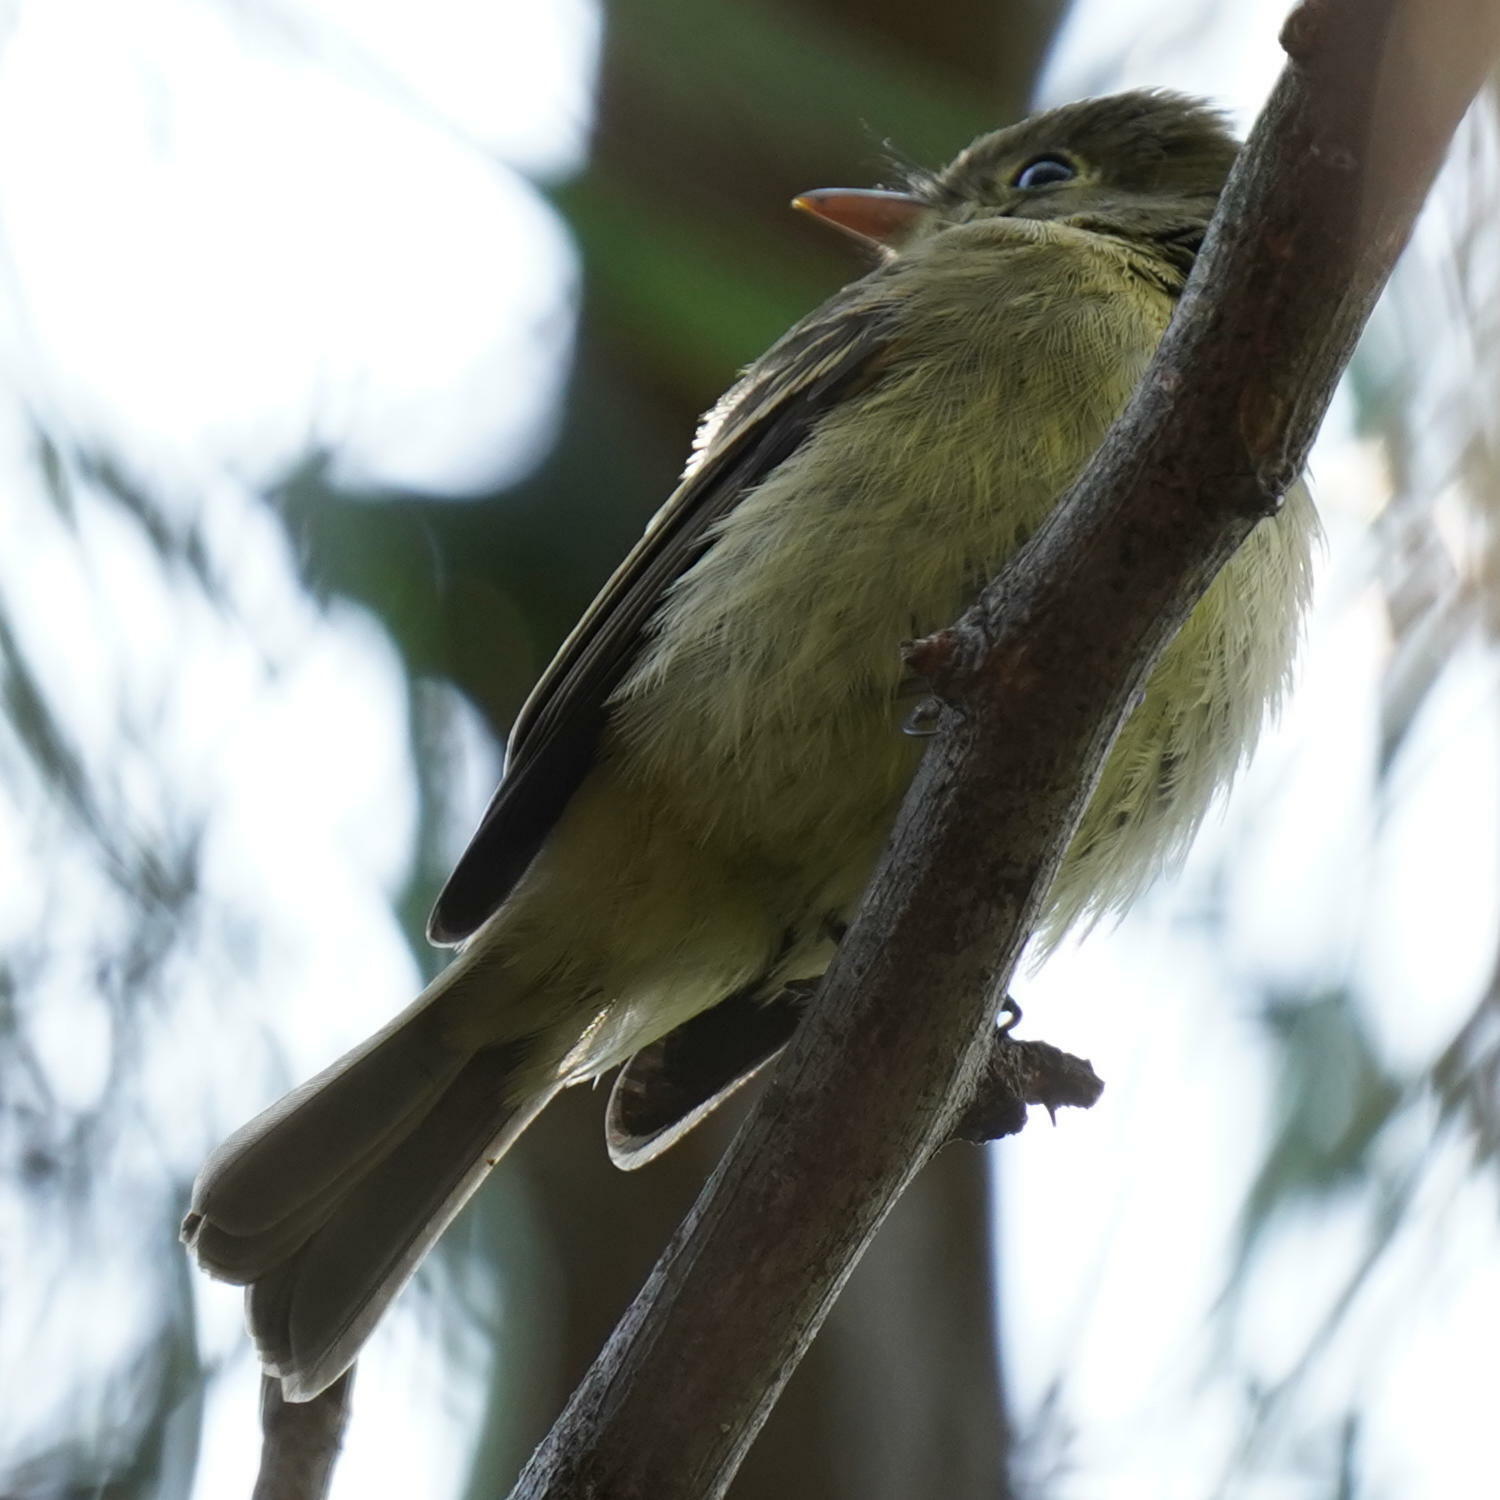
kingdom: Animalia
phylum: Chordata
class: Aves
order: Passeriformes
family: Tyrannidae
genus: Empidonax
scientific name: Empidonax difficilis
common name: Pacific-slope flycatcher
